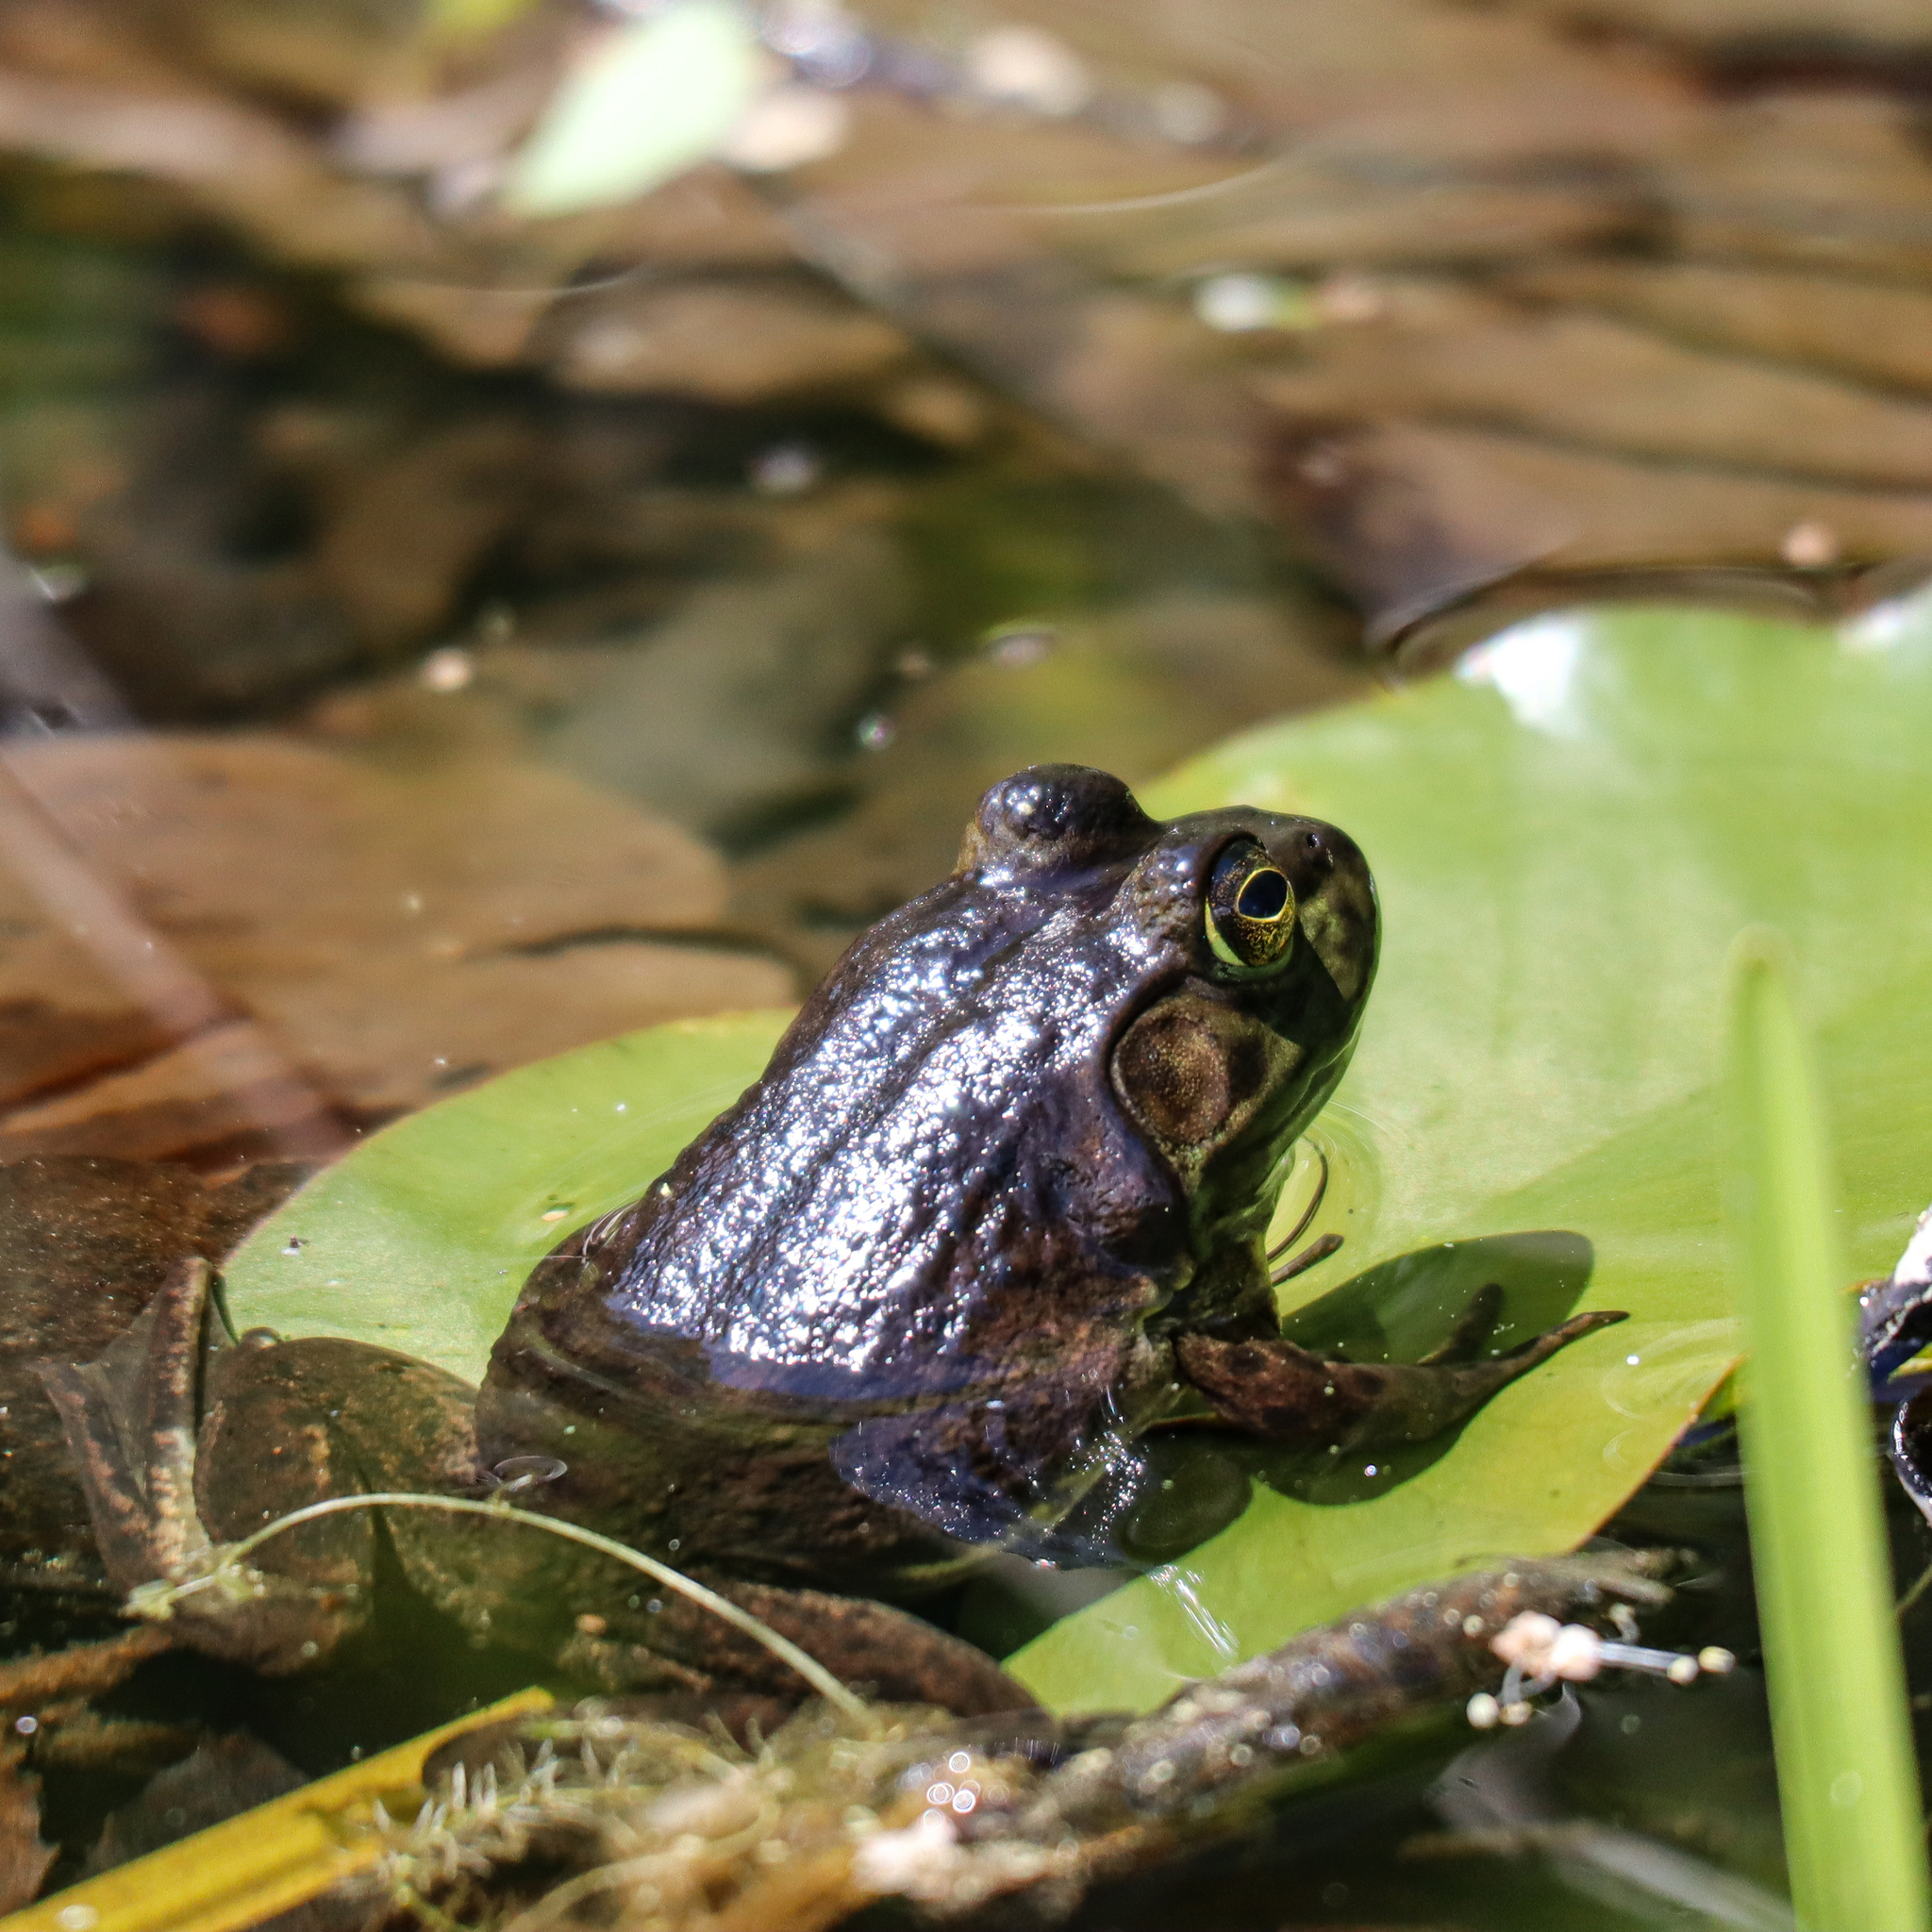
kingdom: Animalia
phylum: Chordata
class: Amphibia
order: Anura
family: Ranidae
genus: Lithobates
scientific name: Lithobates catesbeianus
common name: American bullfrog
